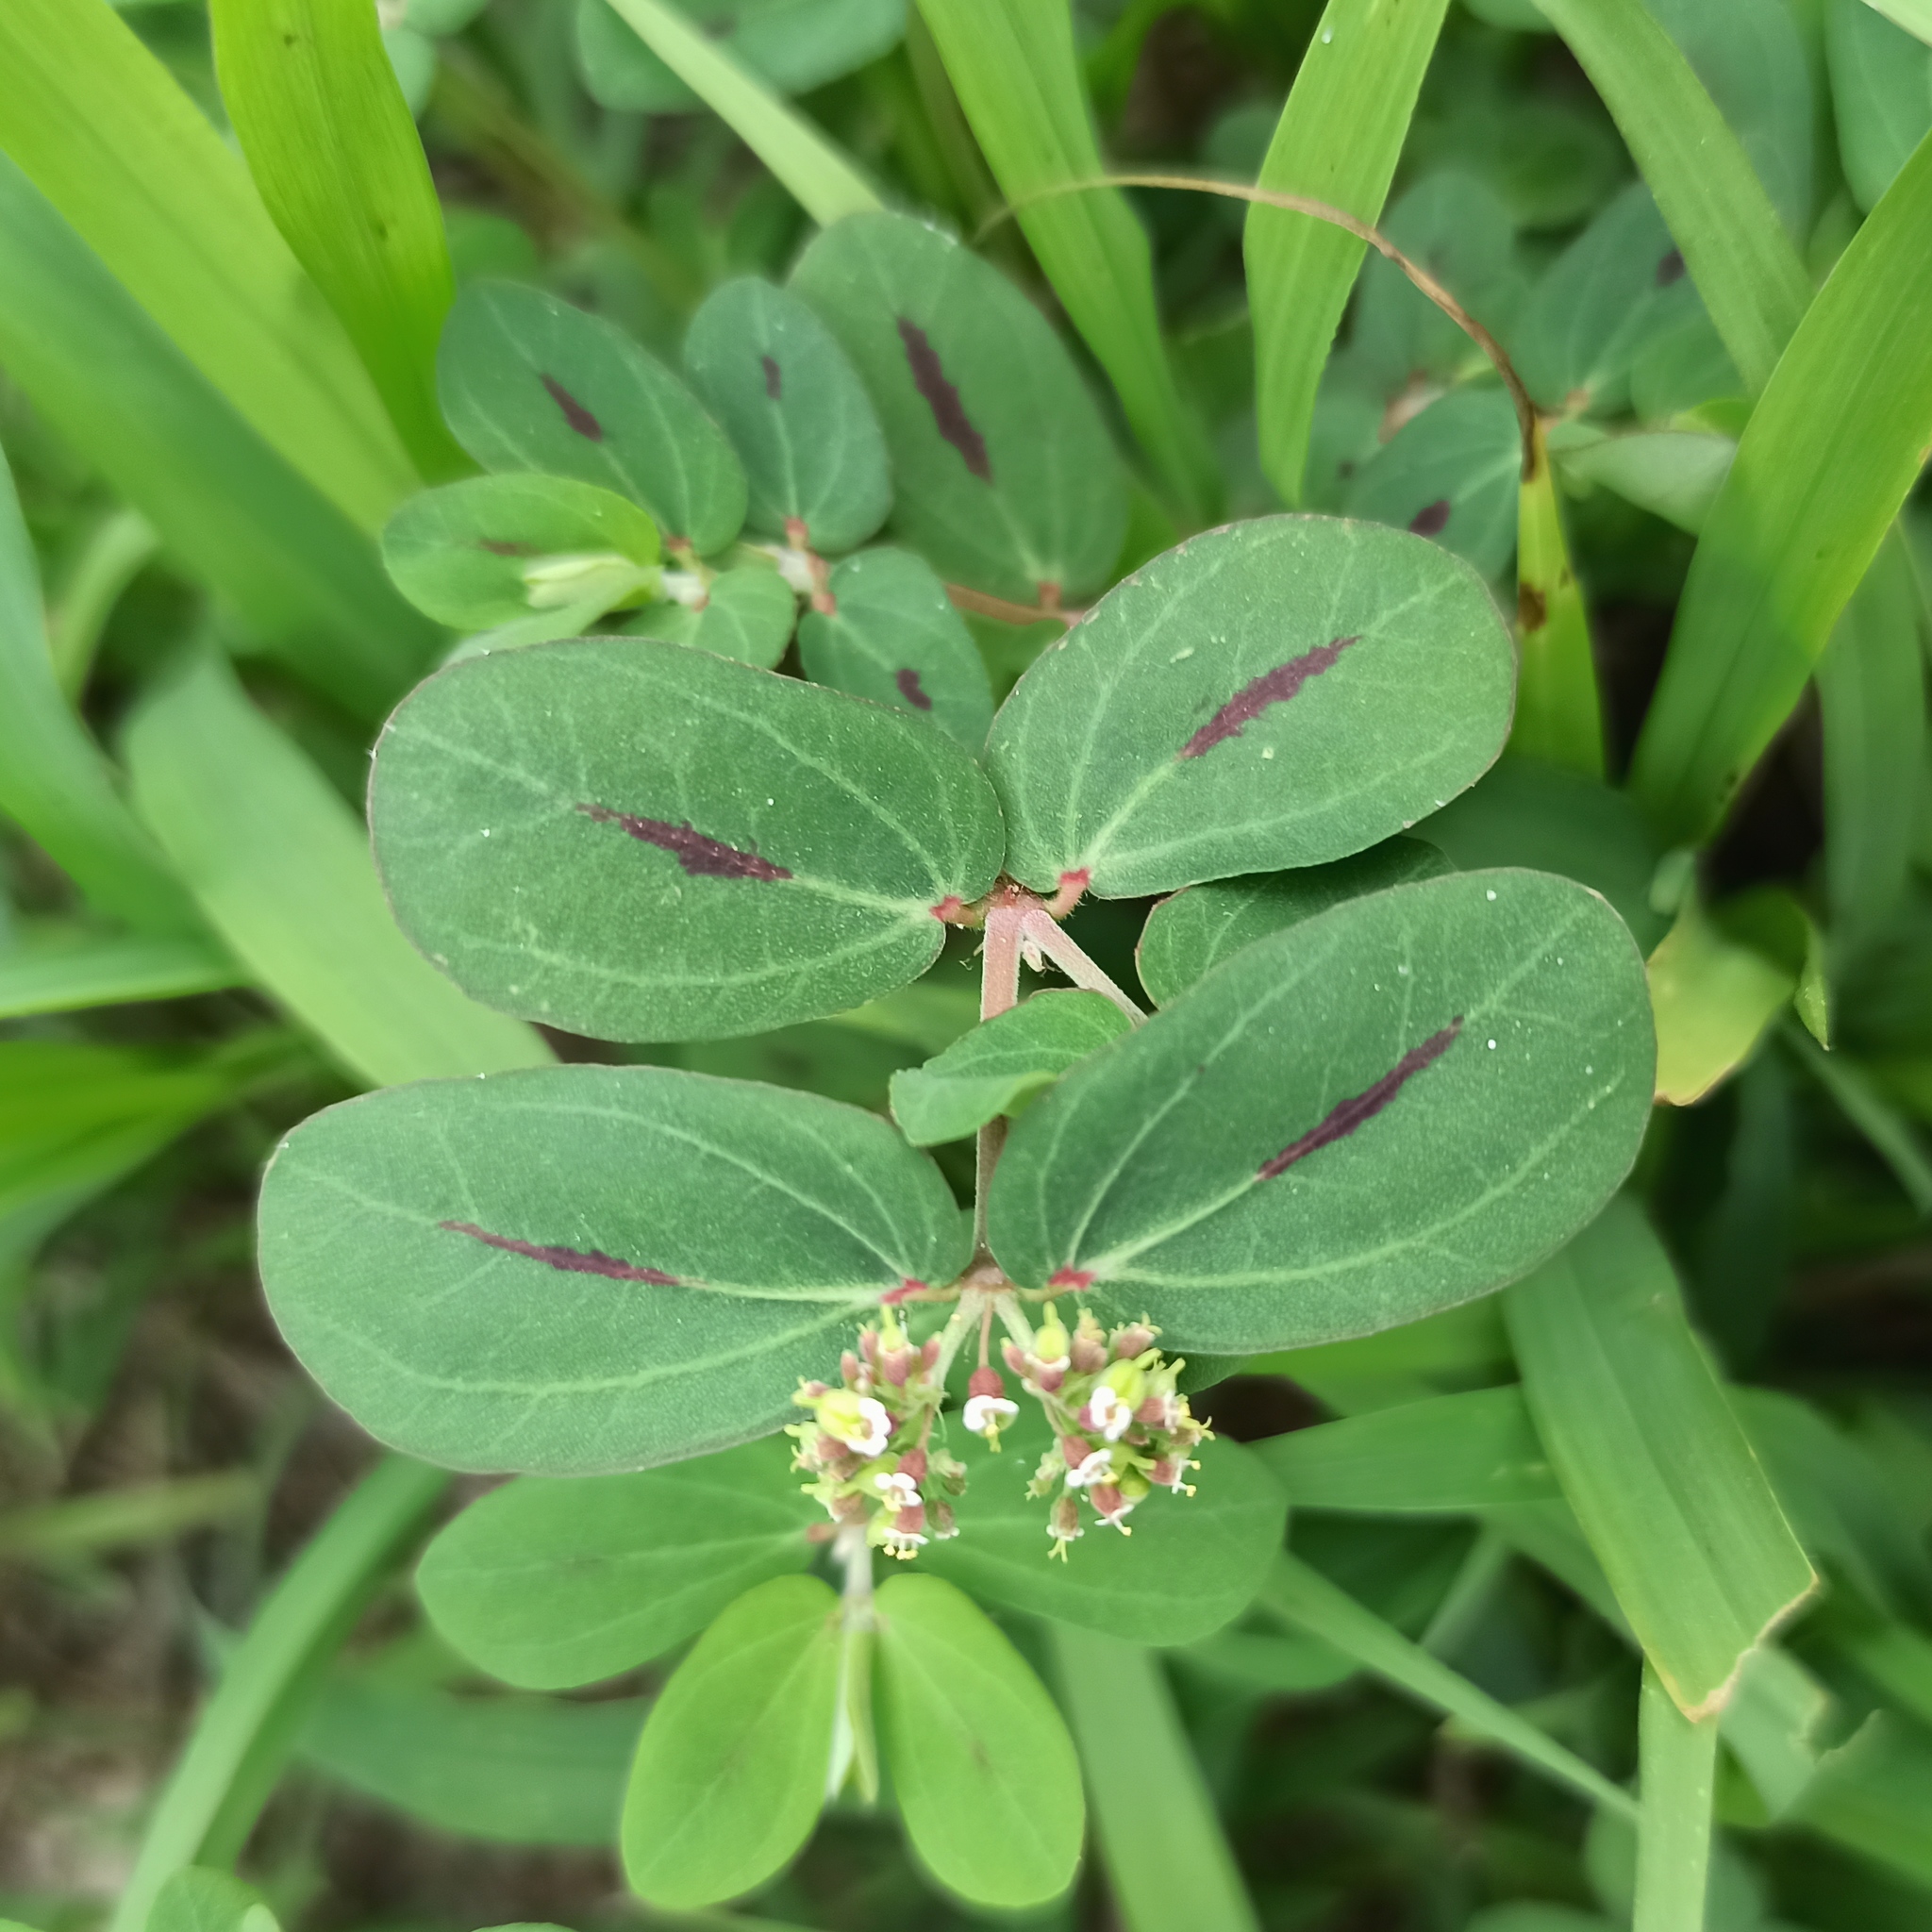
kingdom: Plantae
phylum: Tracheophyta
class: Magnoliopsida
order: Malpighiales
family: Euphorbiaceae
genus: Euphorbia
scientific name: Euphorbia berteroana
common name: Bertero's sandmat
